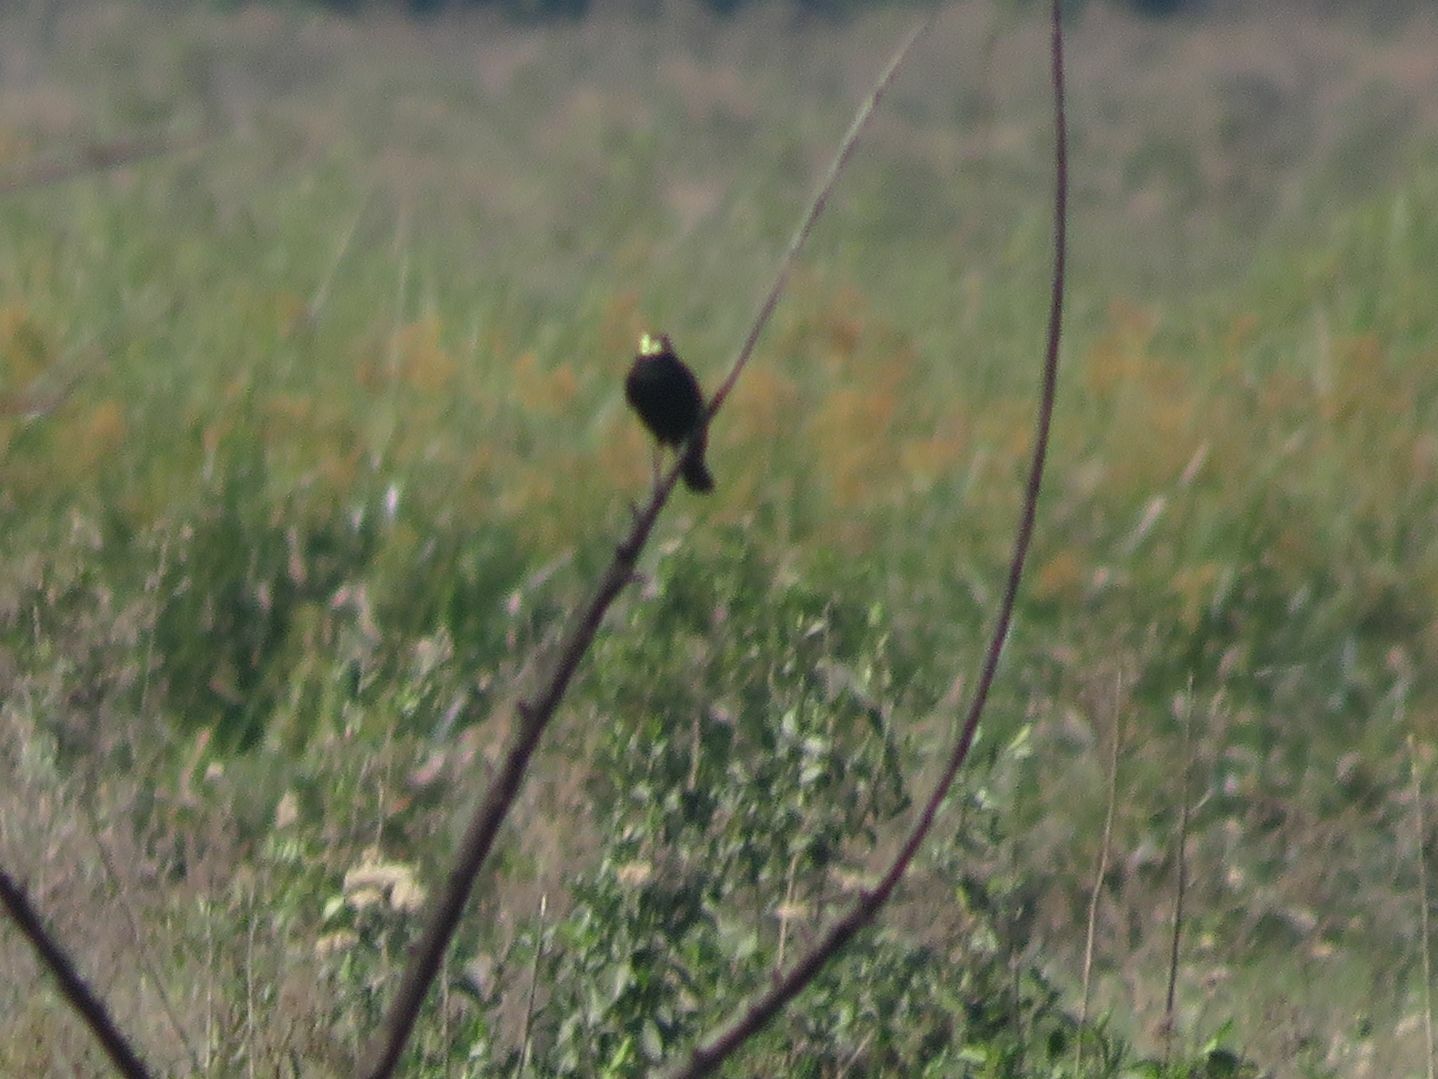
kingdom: Animalia
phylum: Chordata
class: Aves
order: Passeriformes
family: Tyrannidae
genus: Hymenops
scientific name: Hymenops perspicillatus
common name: Spectacled tyrant
